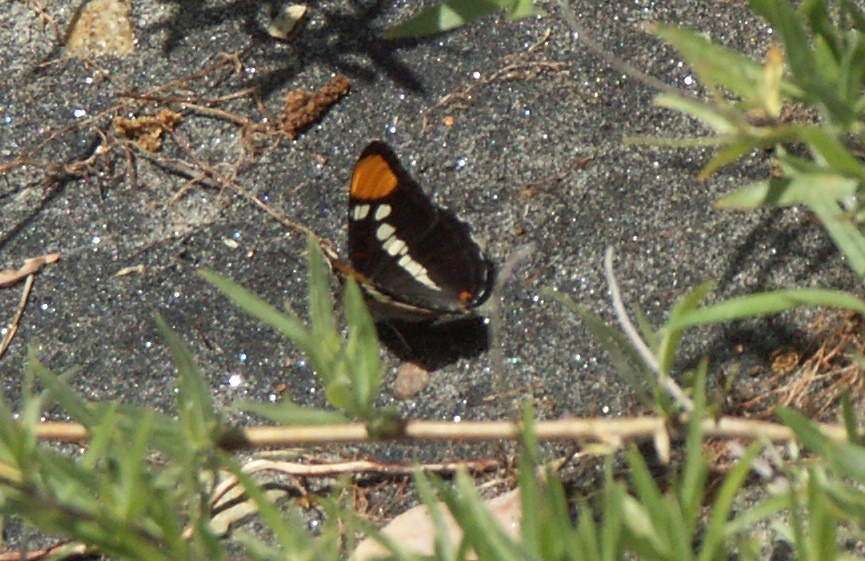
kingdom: Animalia
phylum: Arthropoda
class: Insecta
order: Lepidoptera
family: Nymphalidae
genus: Limenitis
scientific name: Limenitis bredowii
